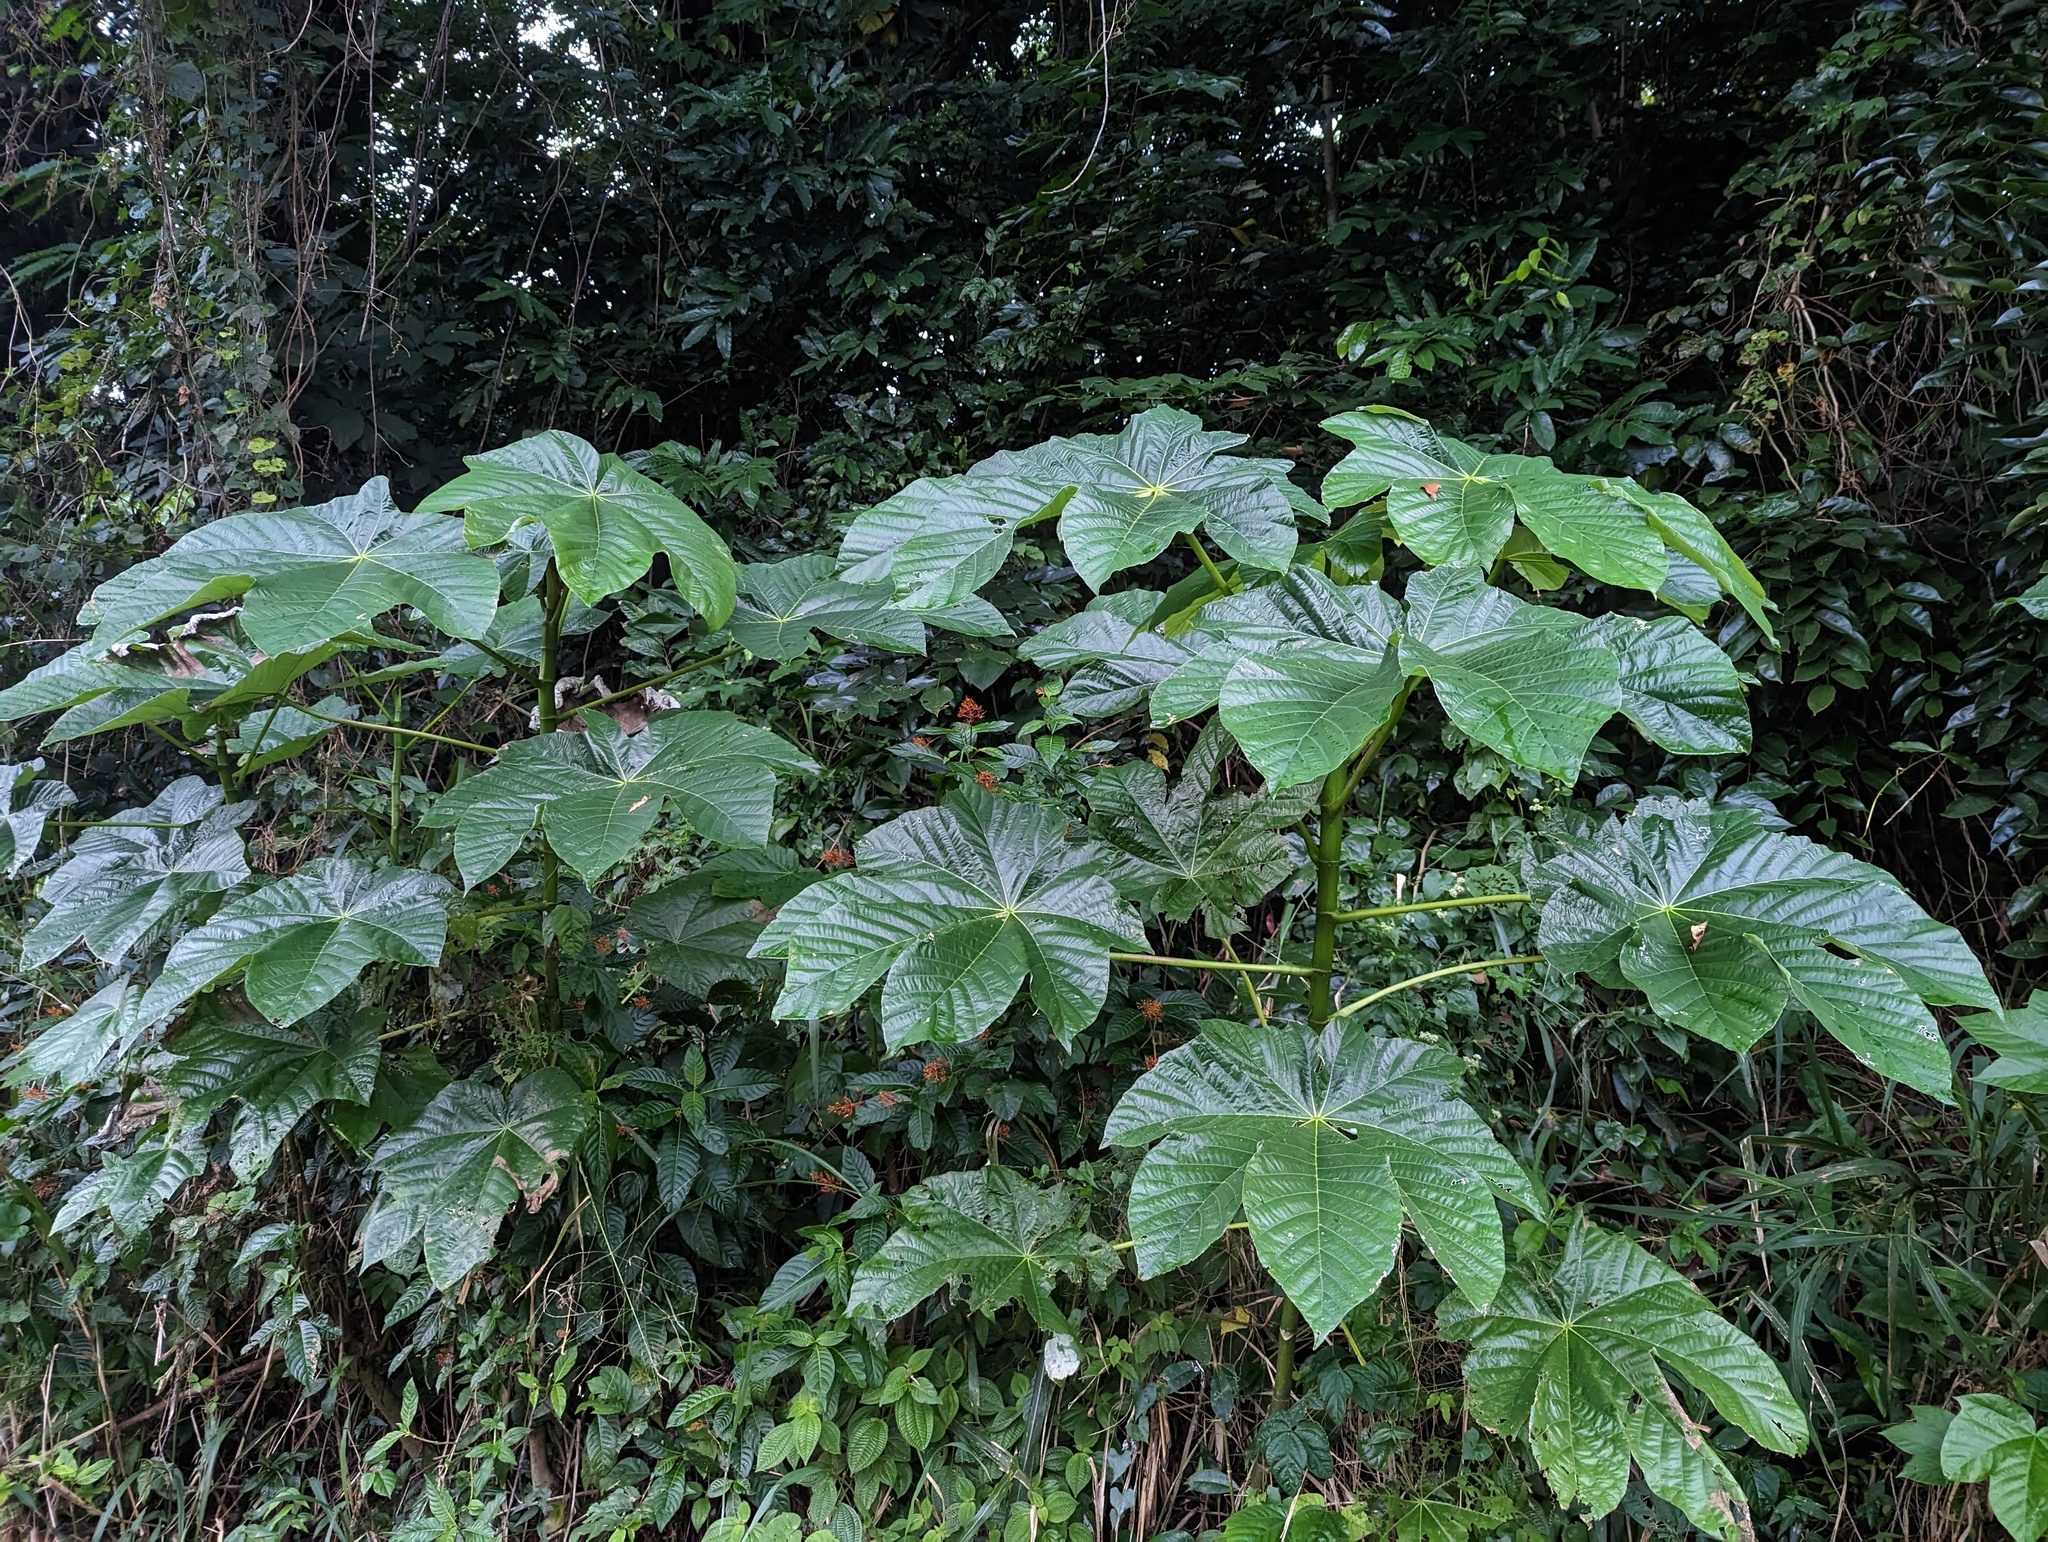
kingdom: Plantae
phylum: Tracheophyta
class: Magnoliopsida
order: Rosales
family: Urticaceae
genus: Cecropia
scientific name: Cecropia schreberiana
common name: Trumpet tree
